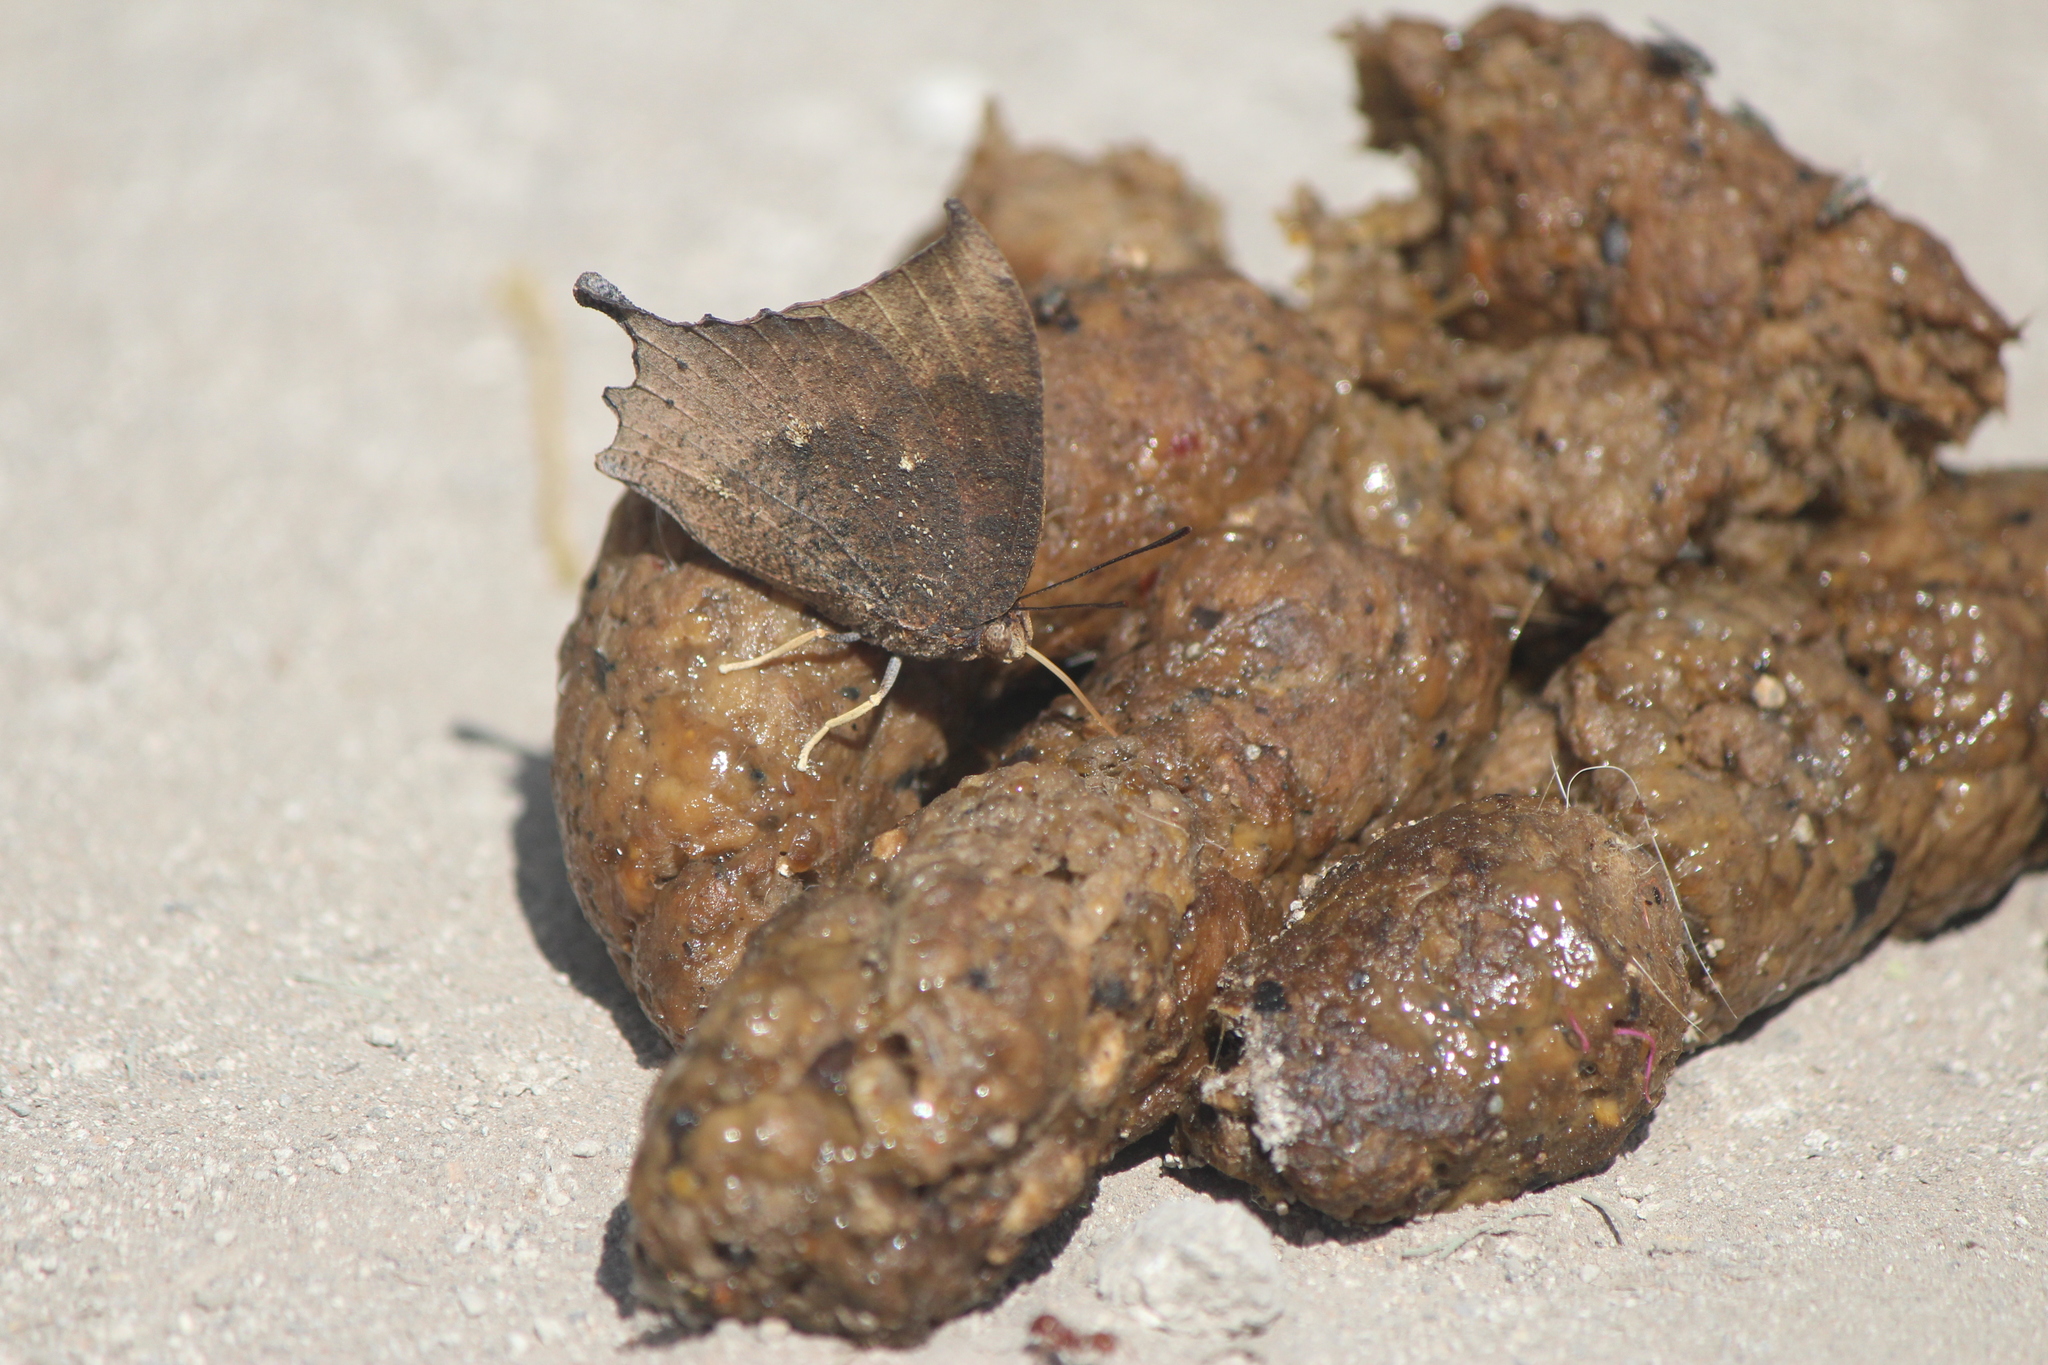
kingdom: Animalia
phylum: Arthropoda
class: Insecta
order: Lepidoptera
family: Nymphalidae
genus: Anaea
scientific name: Anaea aidea
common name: Tropical leafwing
